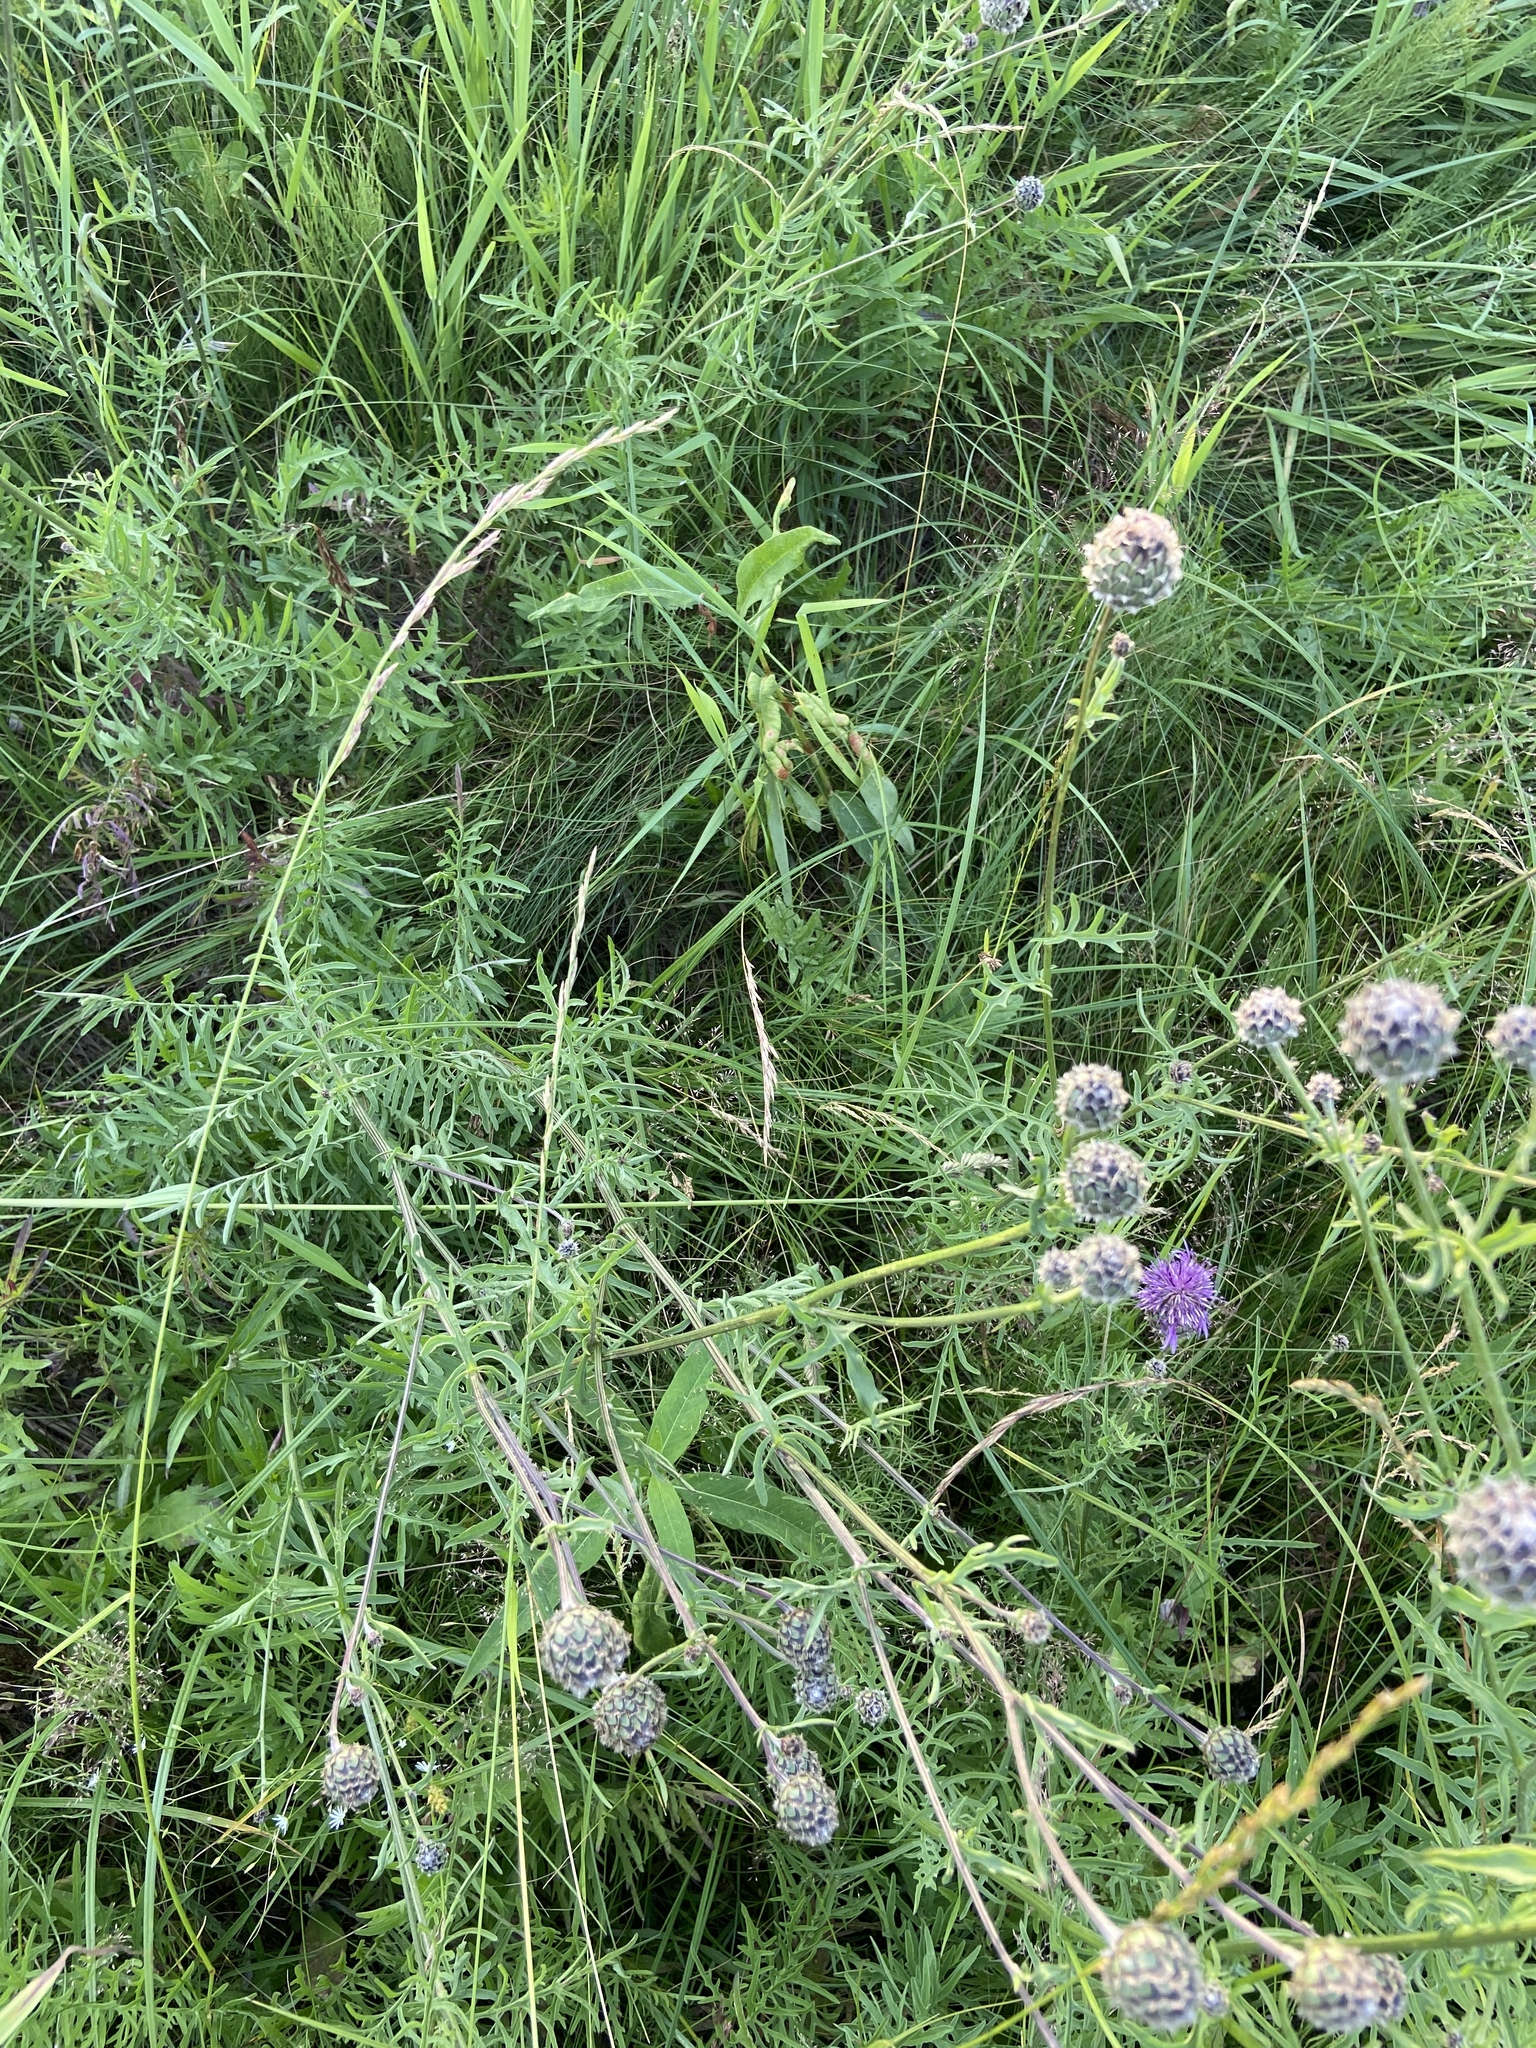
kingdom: Plantae
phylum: Tracheophyta
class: Magnoliopsida
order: Asterales
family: Asteraceae
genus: Centaurea
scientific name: Centaurea scabiosa
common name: Greater knapweed
